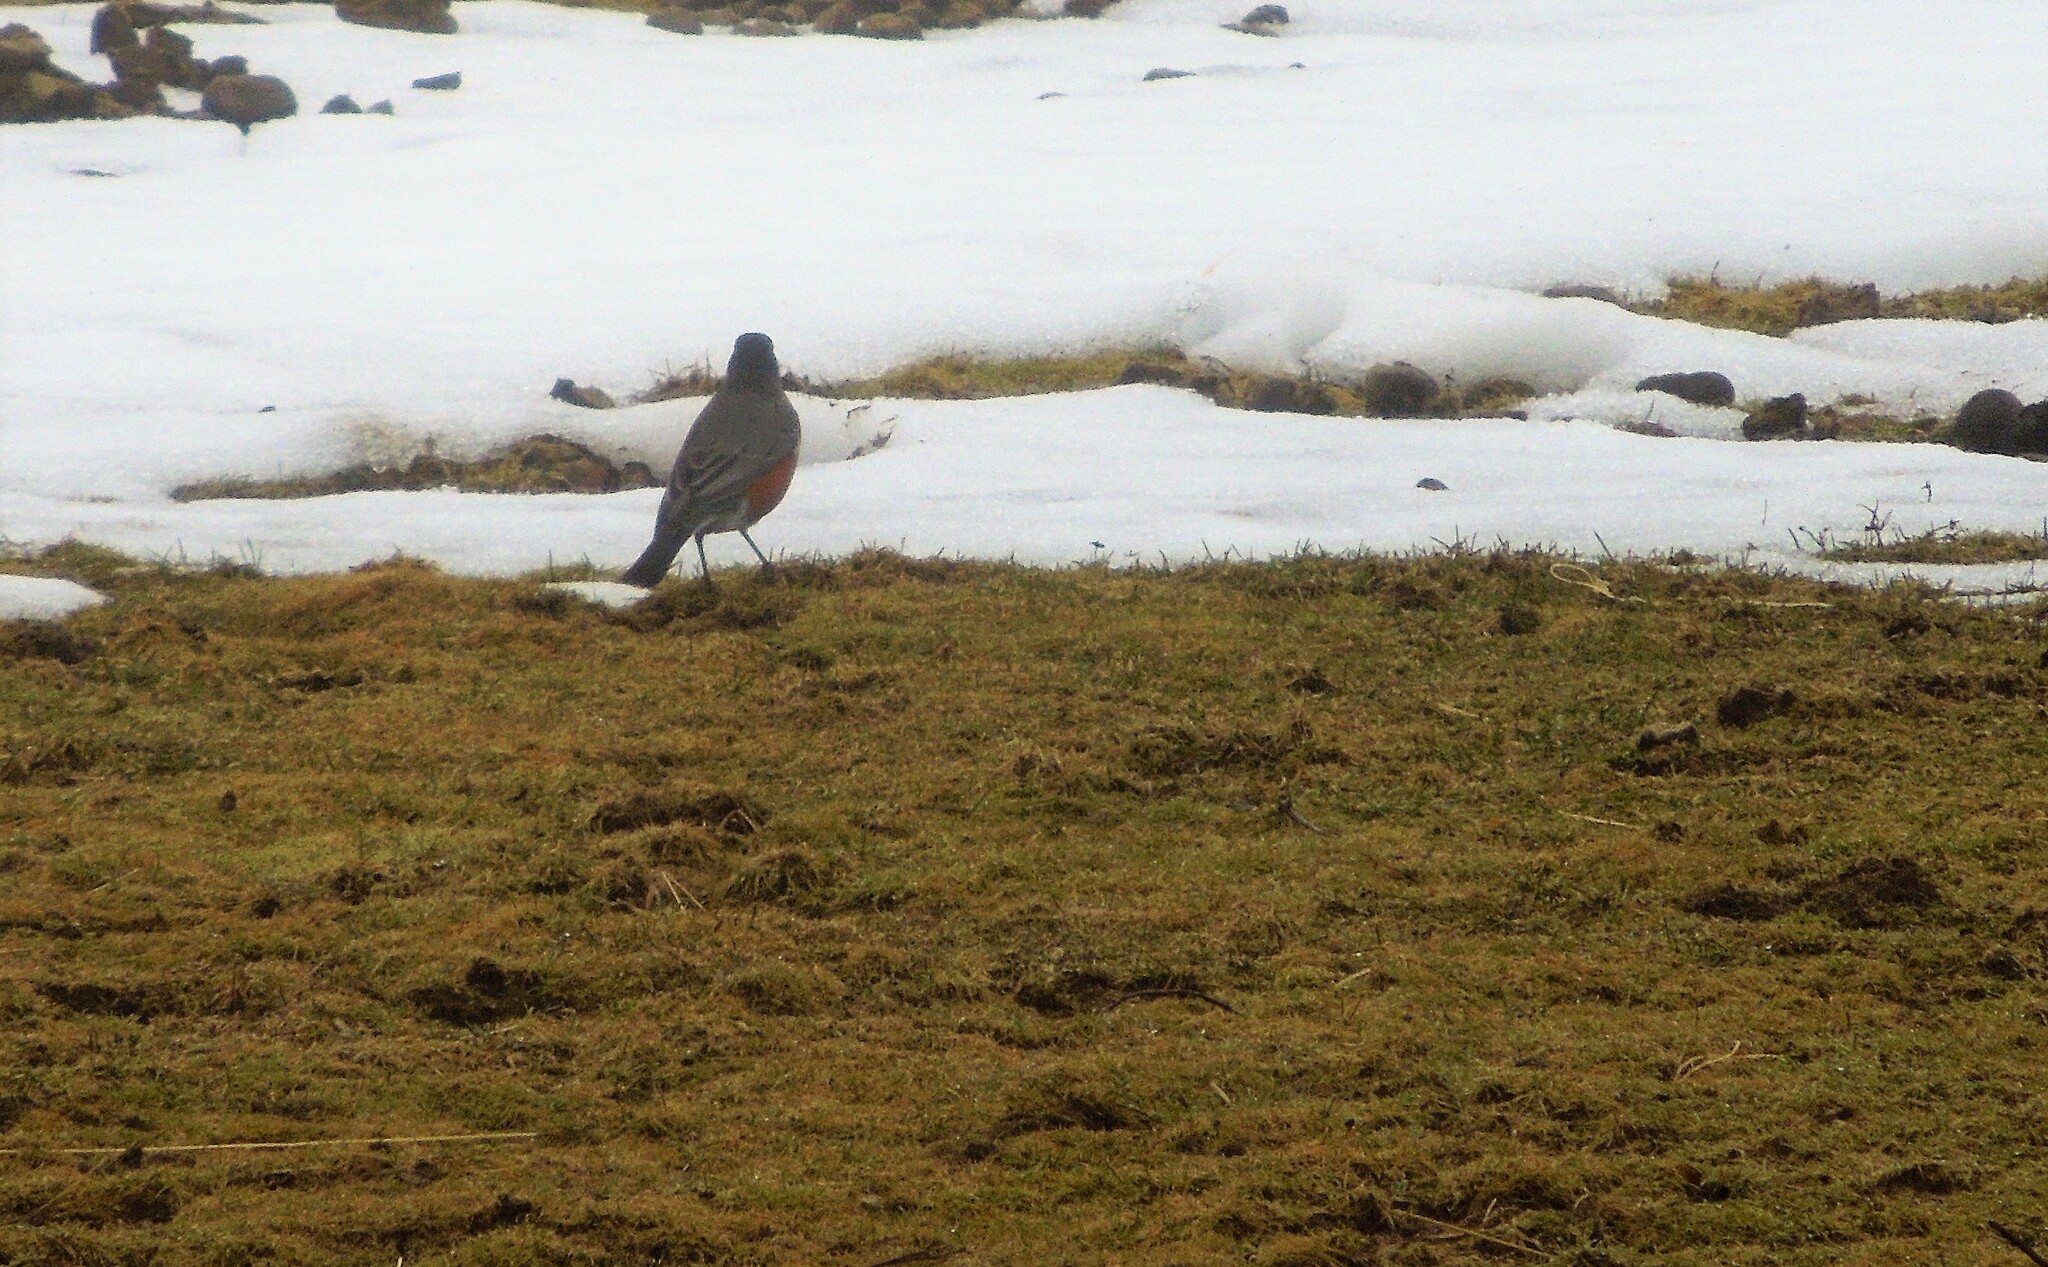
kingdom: Animalia
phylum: Chordata
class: Aves
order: Passeriformes
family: Turdidae
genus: Turdus
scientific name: Turdus migratorius
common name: American robin
